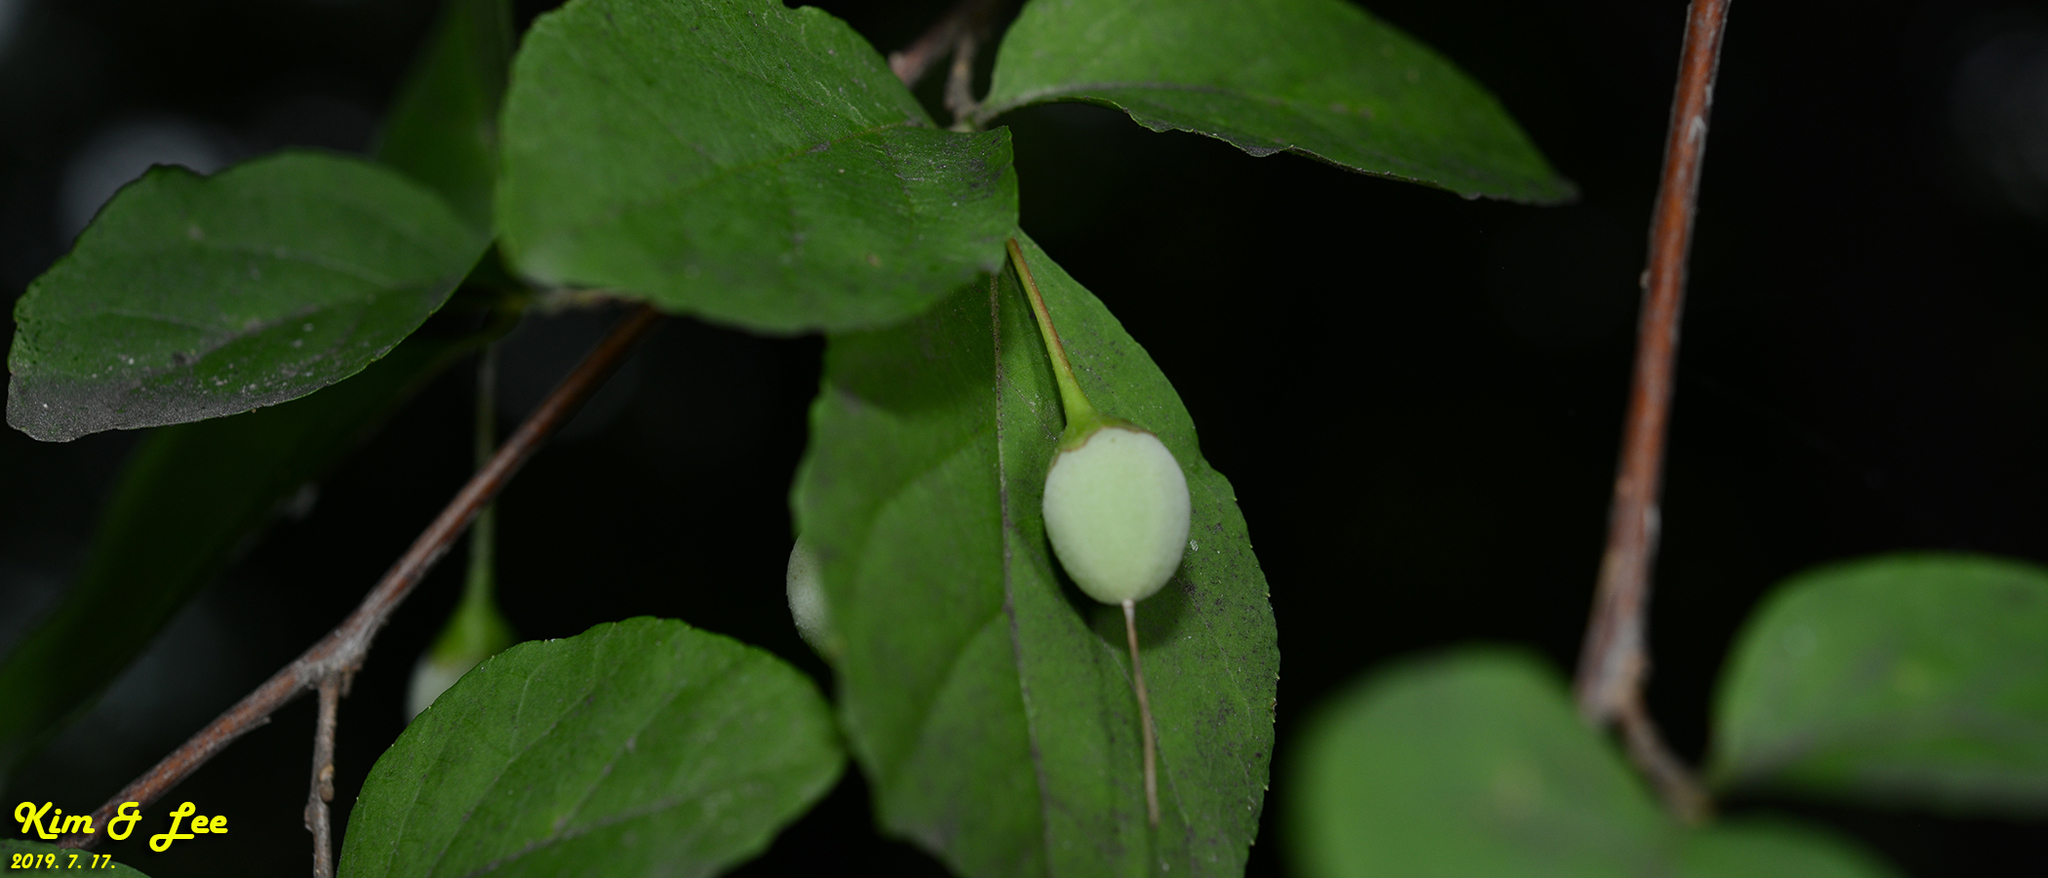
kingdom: Plantae
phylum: Tracheophyta
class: Magnoliopsida
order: Ericales
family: Styracaceae
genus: Styrax
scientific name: Styrax japonicus
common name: Japanese snowbell
